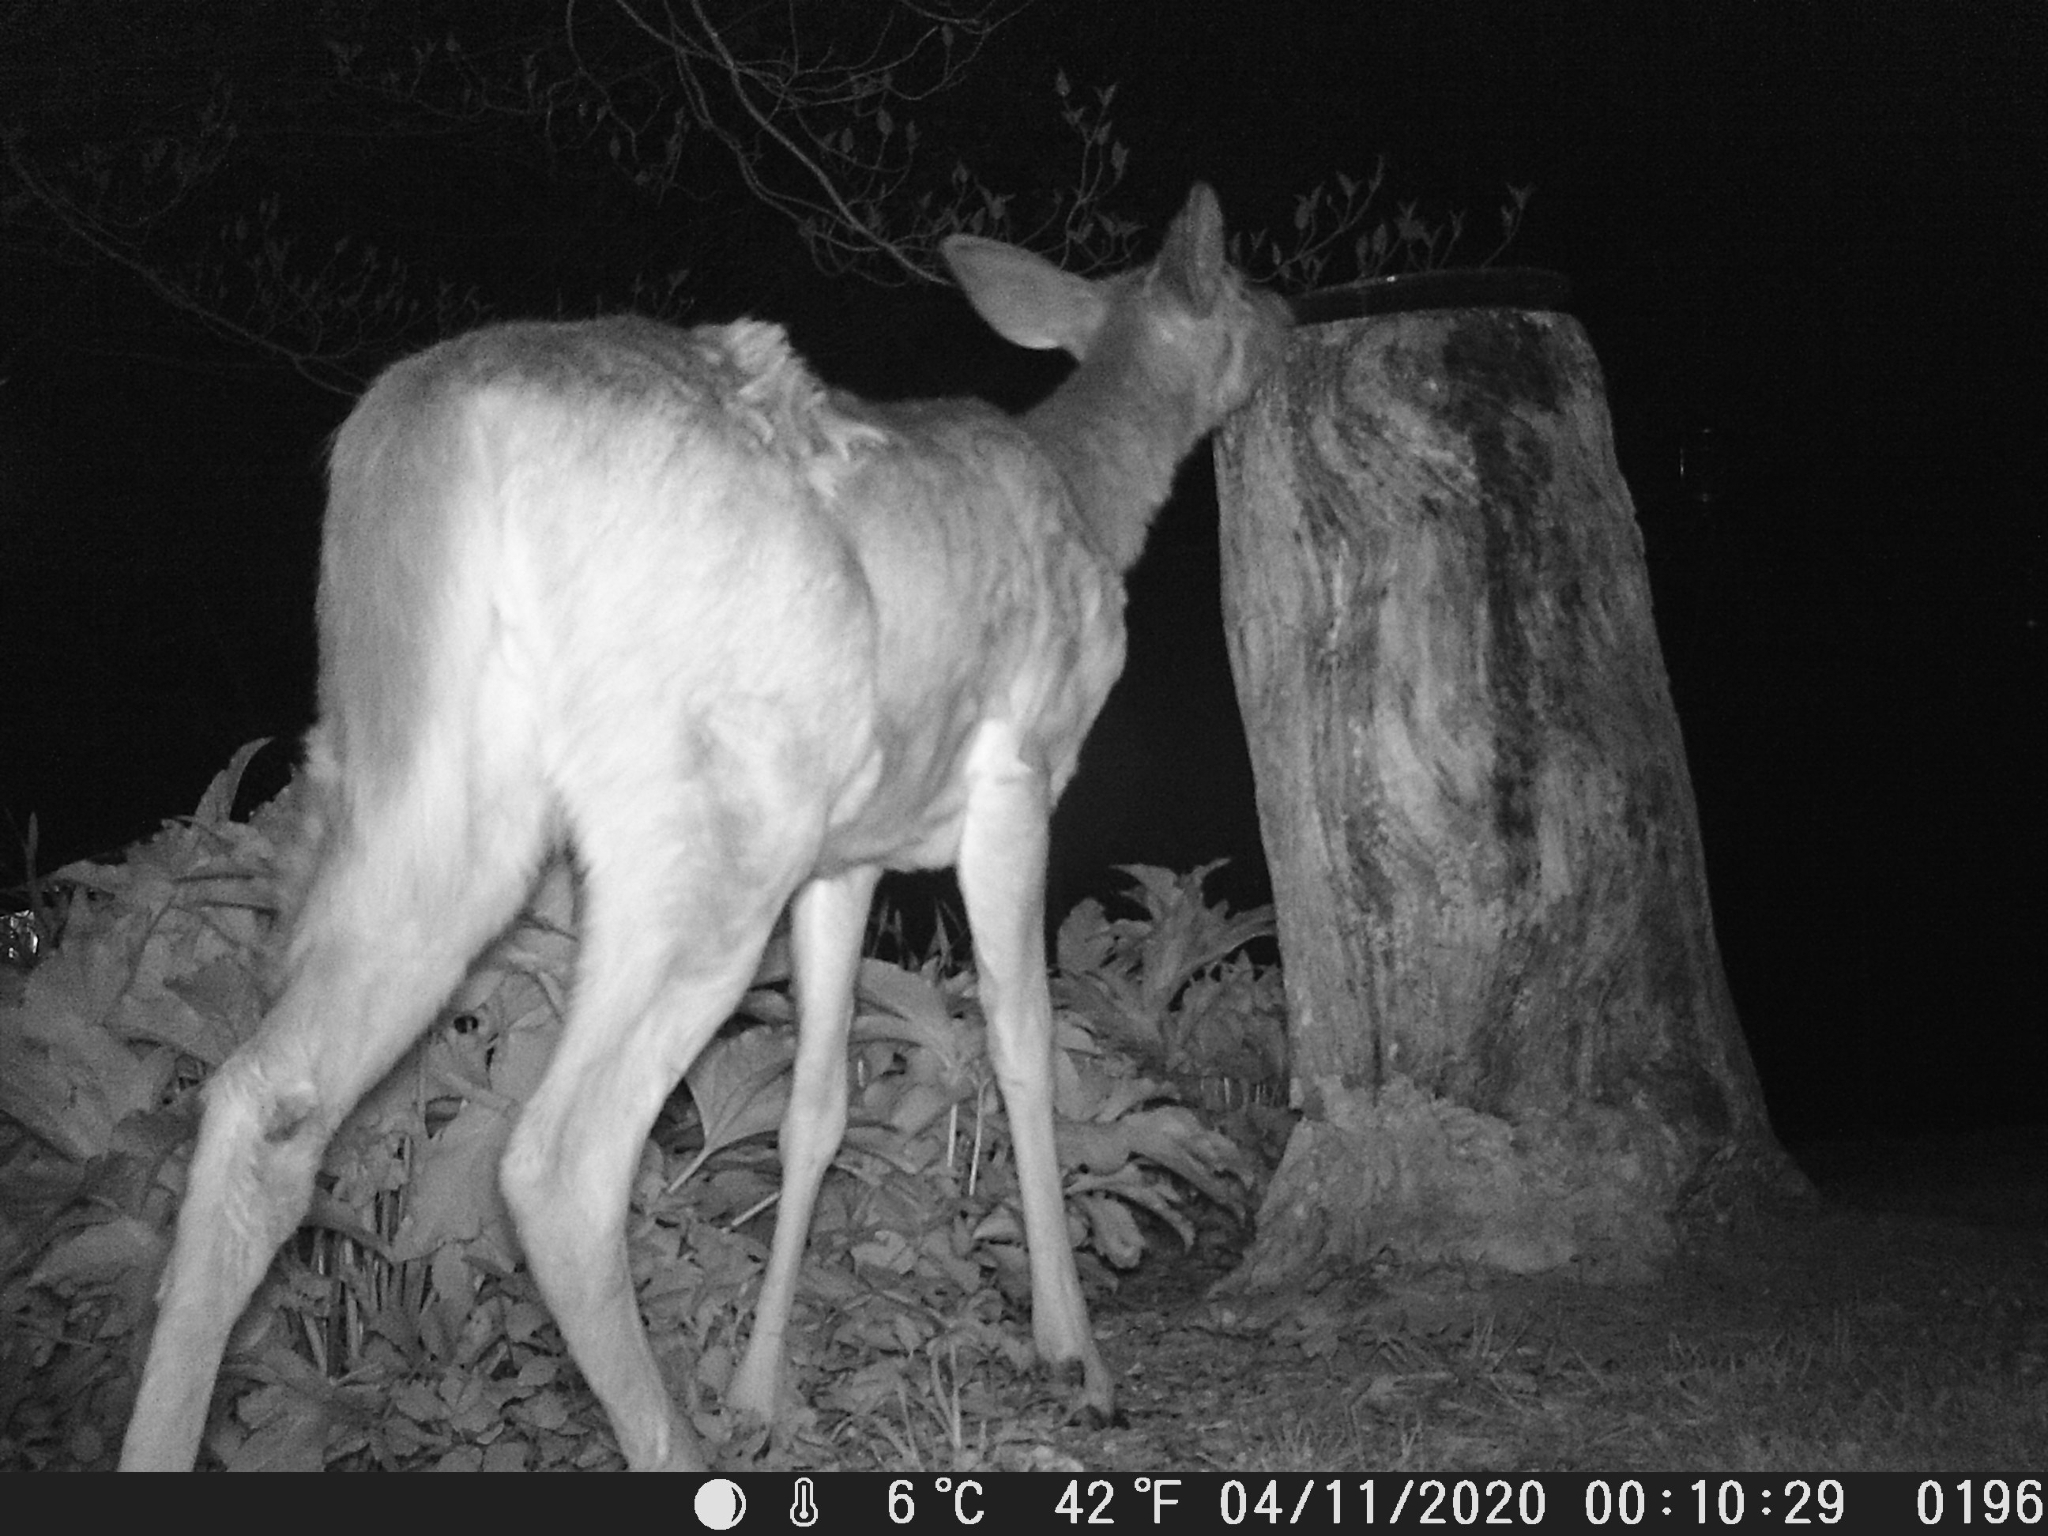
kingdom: Animalia
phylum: Chordata
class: Mammalia
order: Artiodactyla
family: Cervidae
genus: Odocoileus
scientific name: Odocoileus virginianus
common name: White-tailed deer
